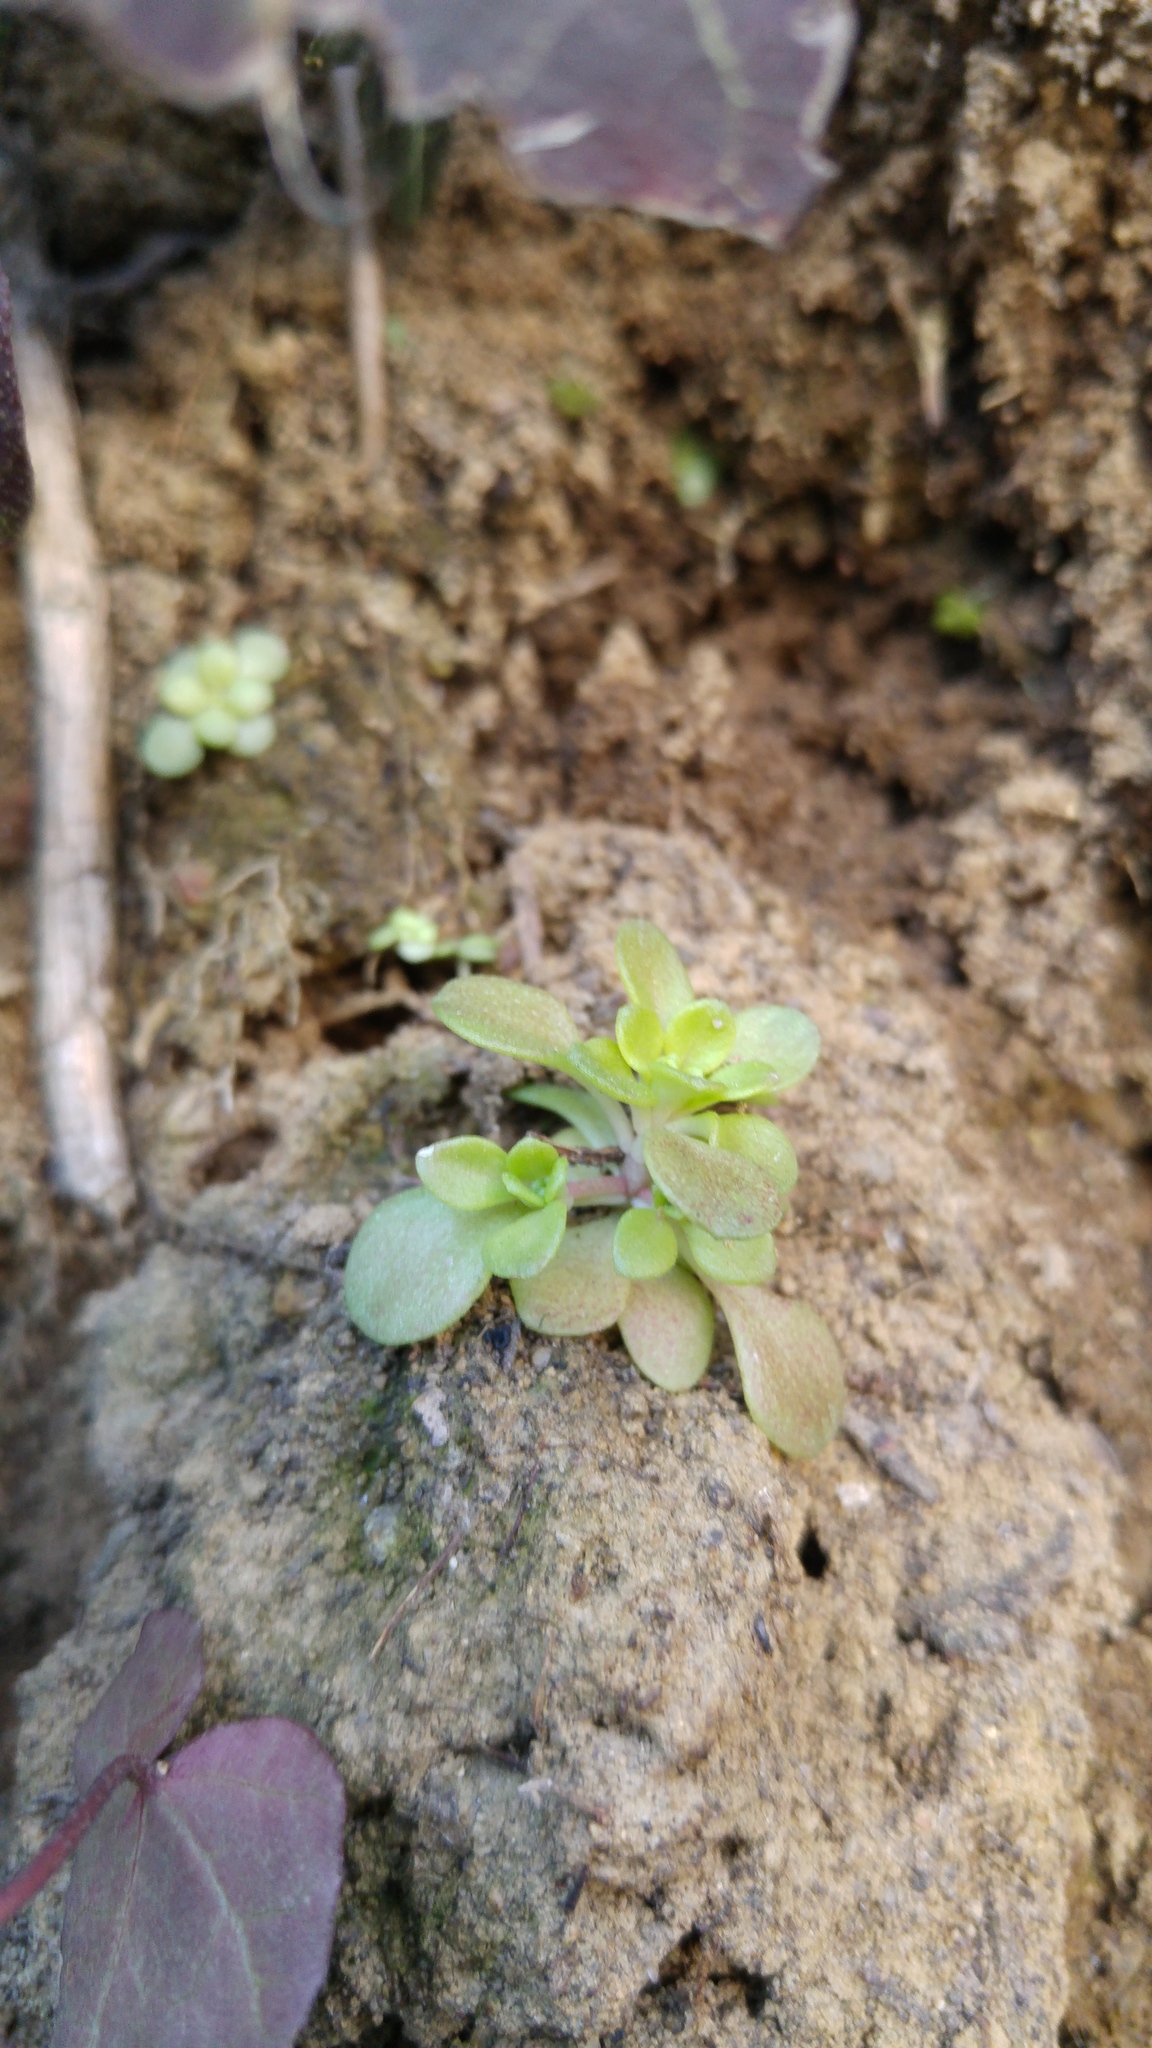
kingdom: Plantae
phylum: Tracheophyta
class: Magnoliopsida
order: Saxifragales
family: Crassulaceae
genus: Sedum
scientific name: Sedum cepaea
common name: Pink stonecrop
